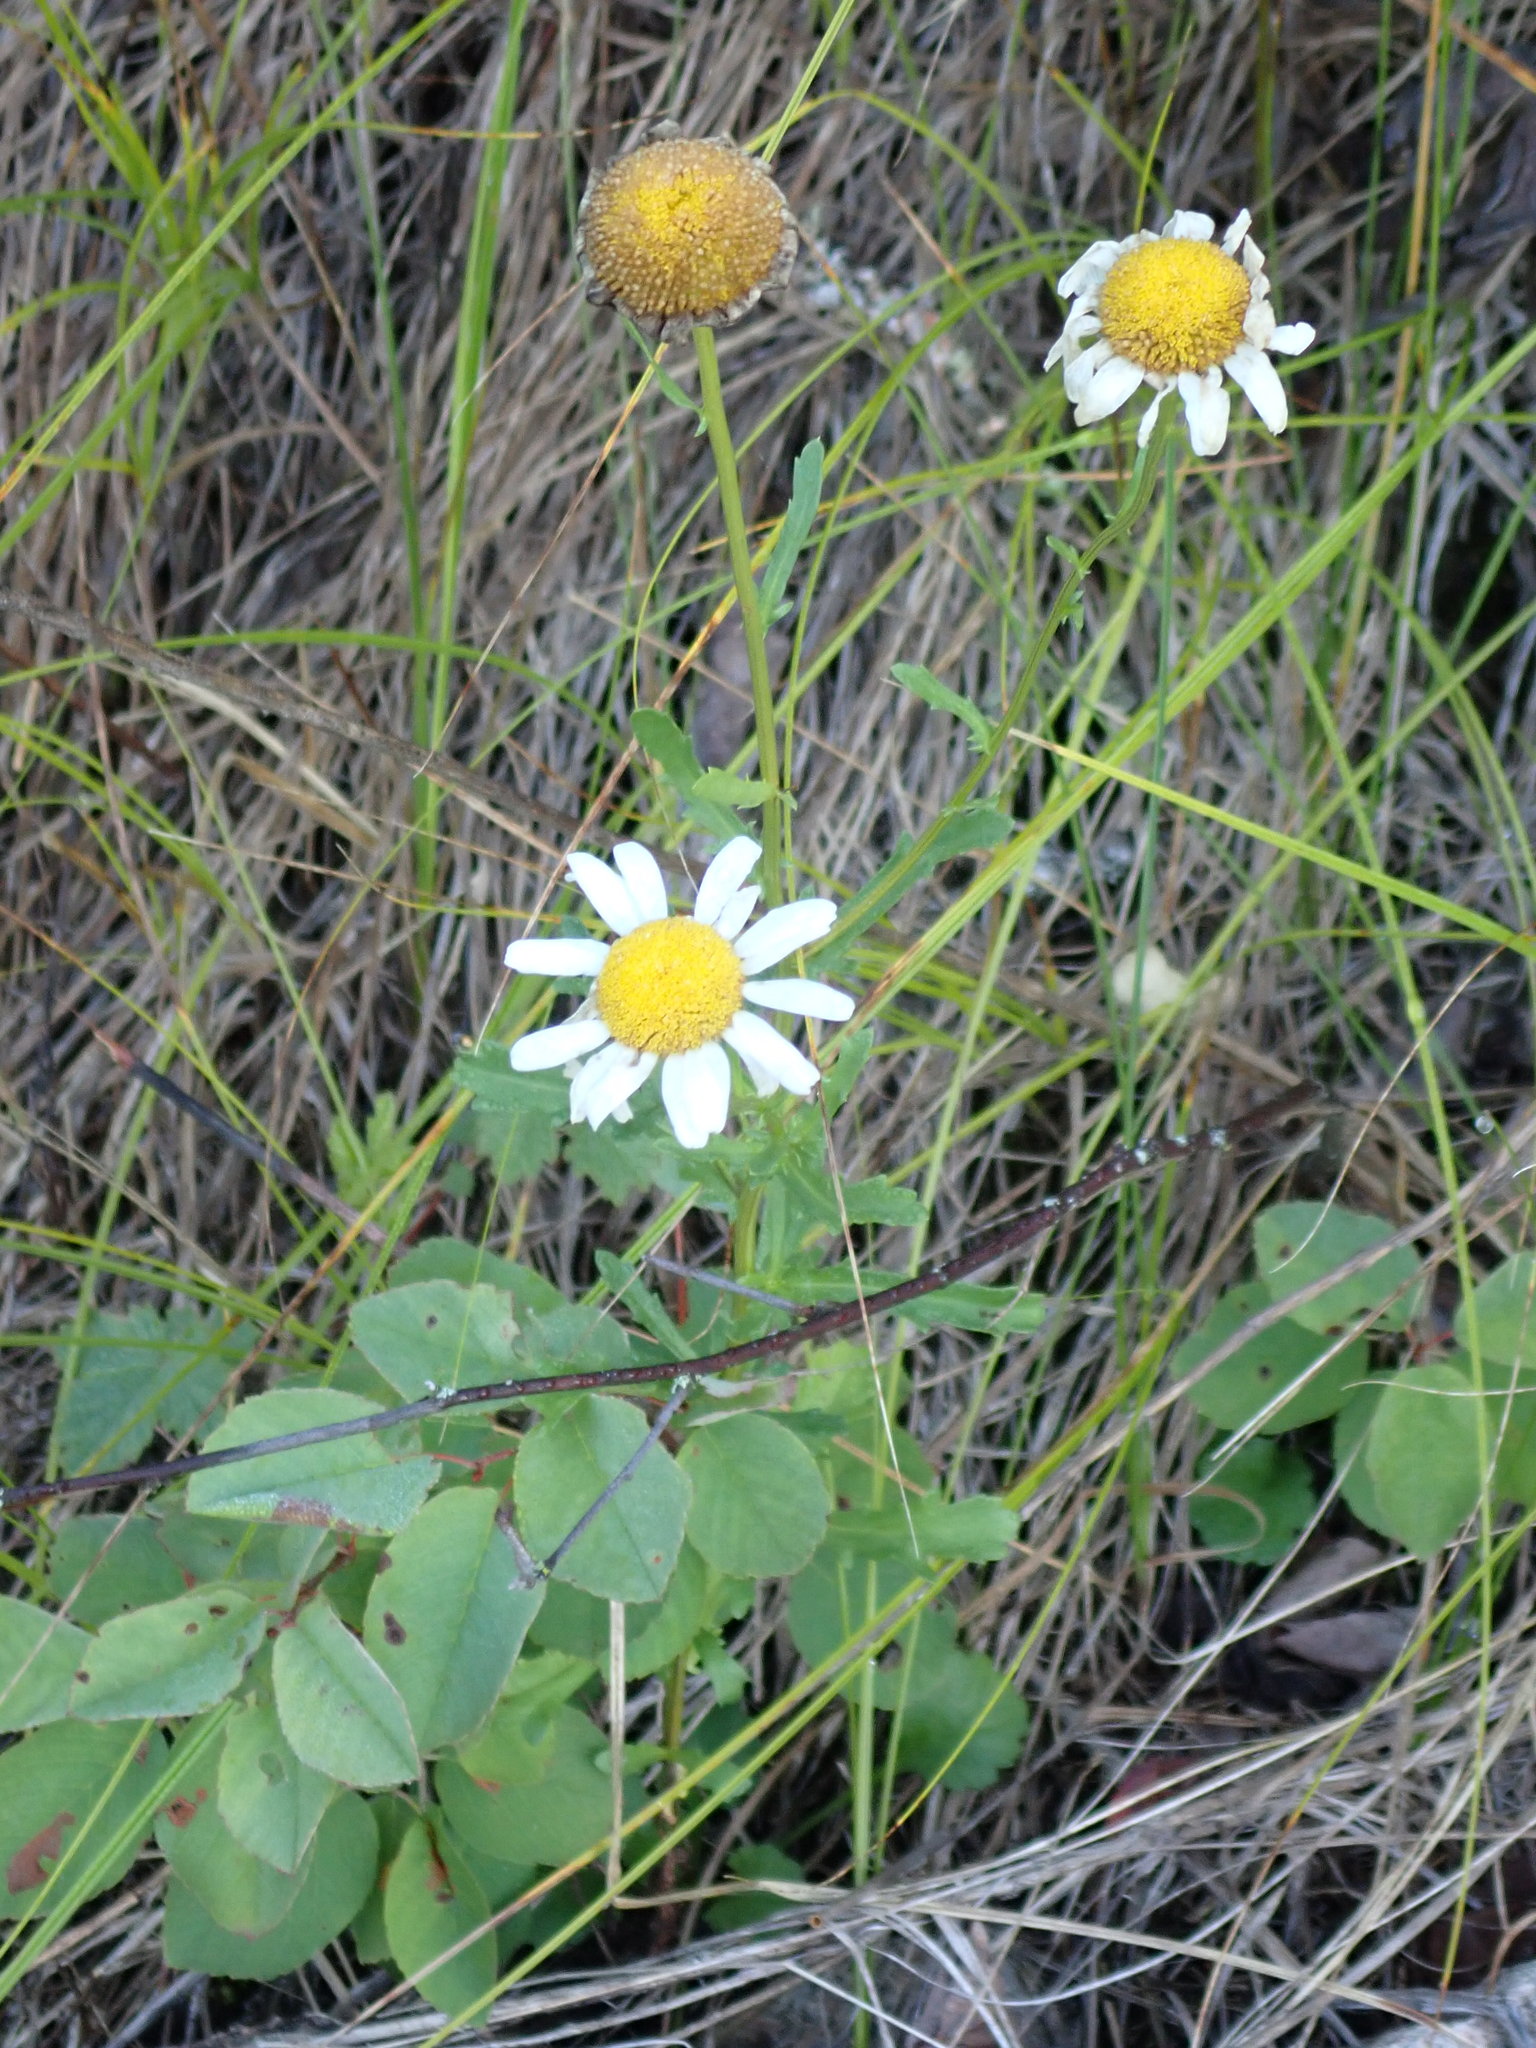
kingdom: Plantae
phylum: Tracheophyta
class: Magnoliopsida
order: Asterales
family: Asteraceae
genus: Leucanthemum
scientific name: Leucanthemum vulgare
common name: Oxeye daisy
